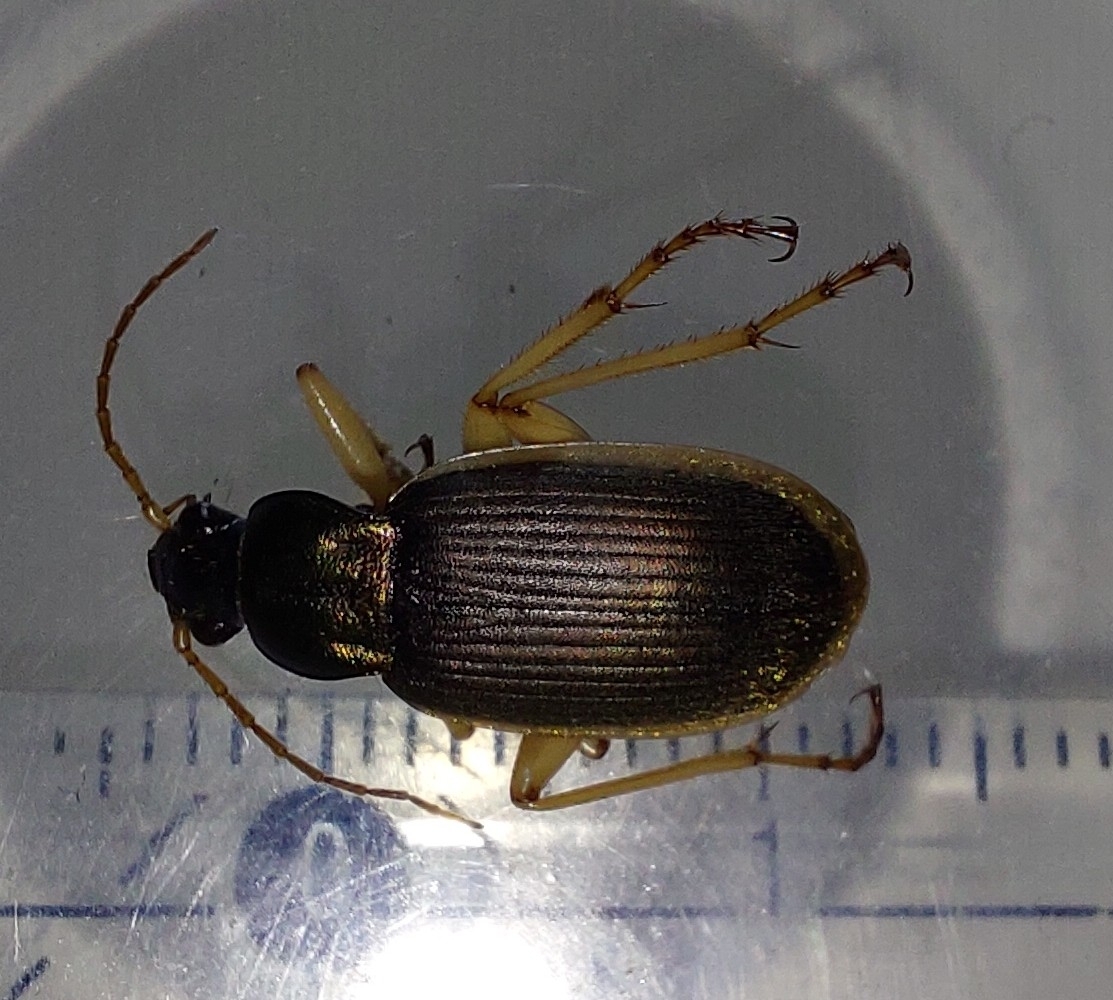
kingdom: Animalia
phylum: Arthropoda
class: Insecta
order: Coleoptera
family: Carabidae
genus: Chlaenius
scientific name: Chlaenius festivus
